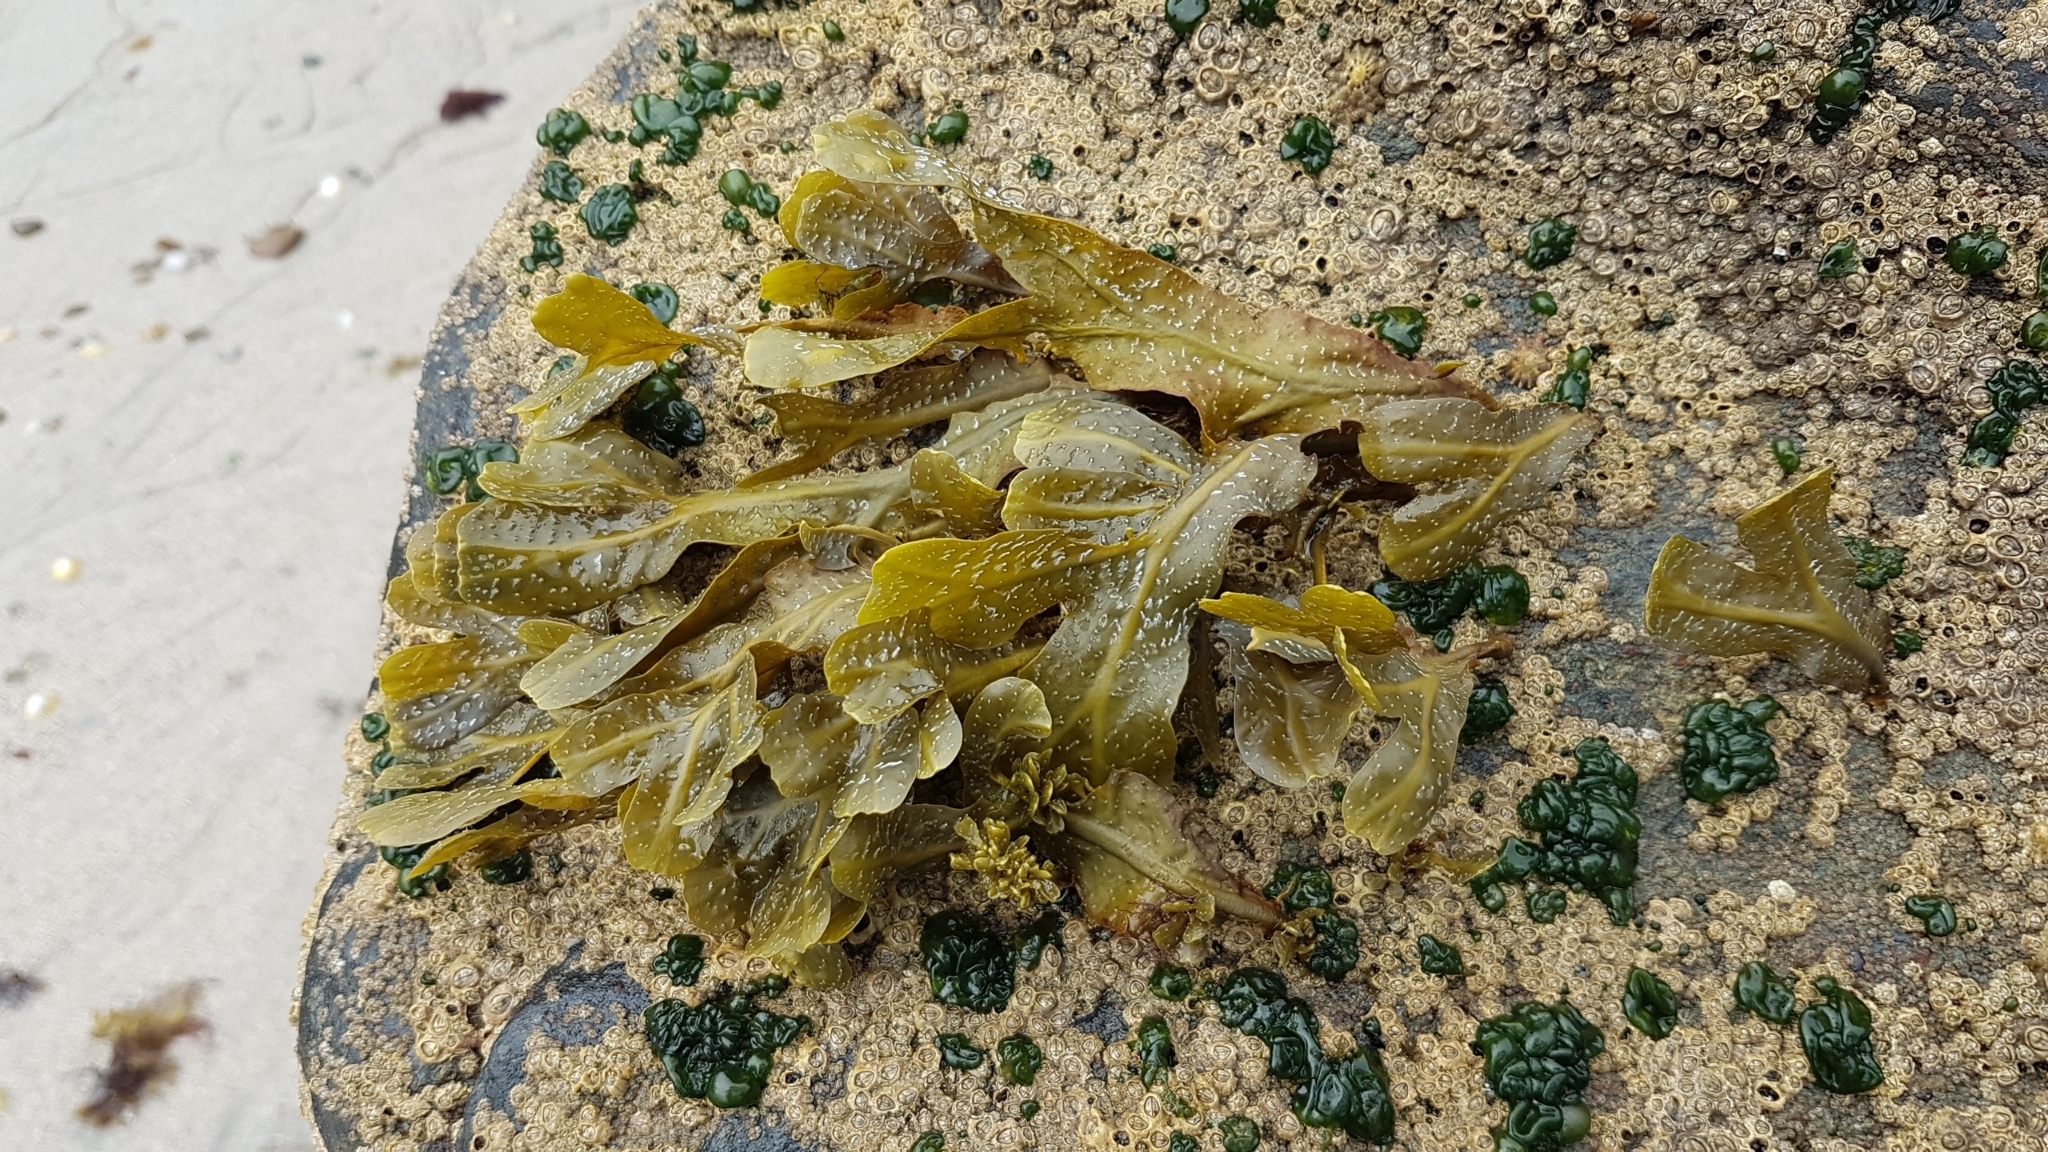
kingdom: Chromista
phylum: Ochrophyta
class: Phaeophyceae
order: Fucales
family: Fucaceae
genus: Fucus
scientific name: Fucus spiralis
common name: Spiral wrack
